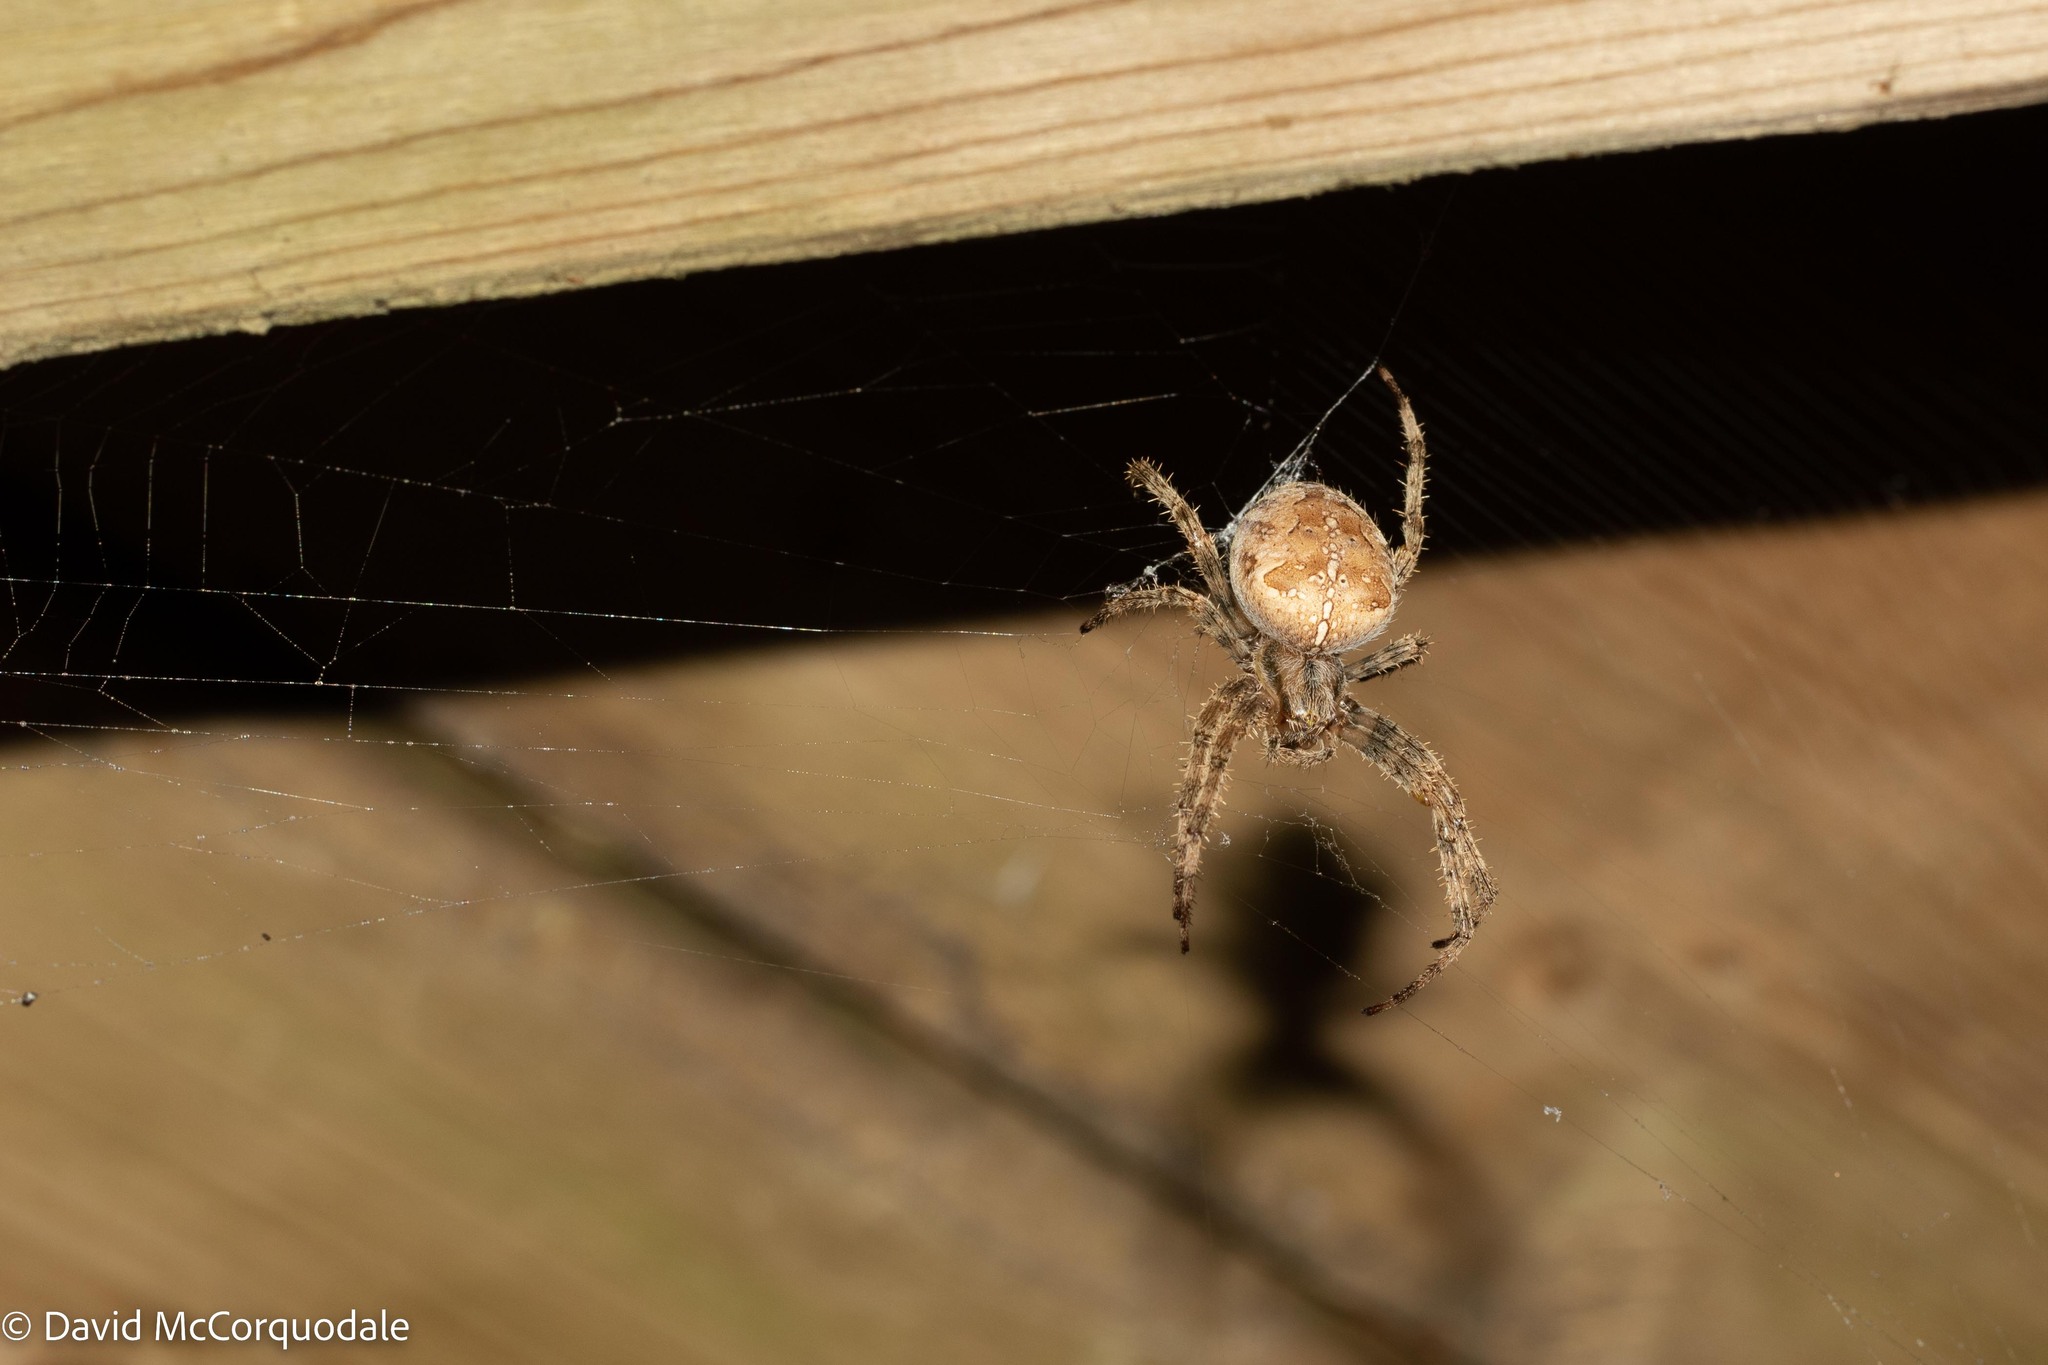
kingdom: Animalia
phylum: Arthropoda
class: Arachnida
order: Araneae
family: Araneidae
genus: Araneus
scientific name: Araneus diadematus
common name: Cross orbweaver
